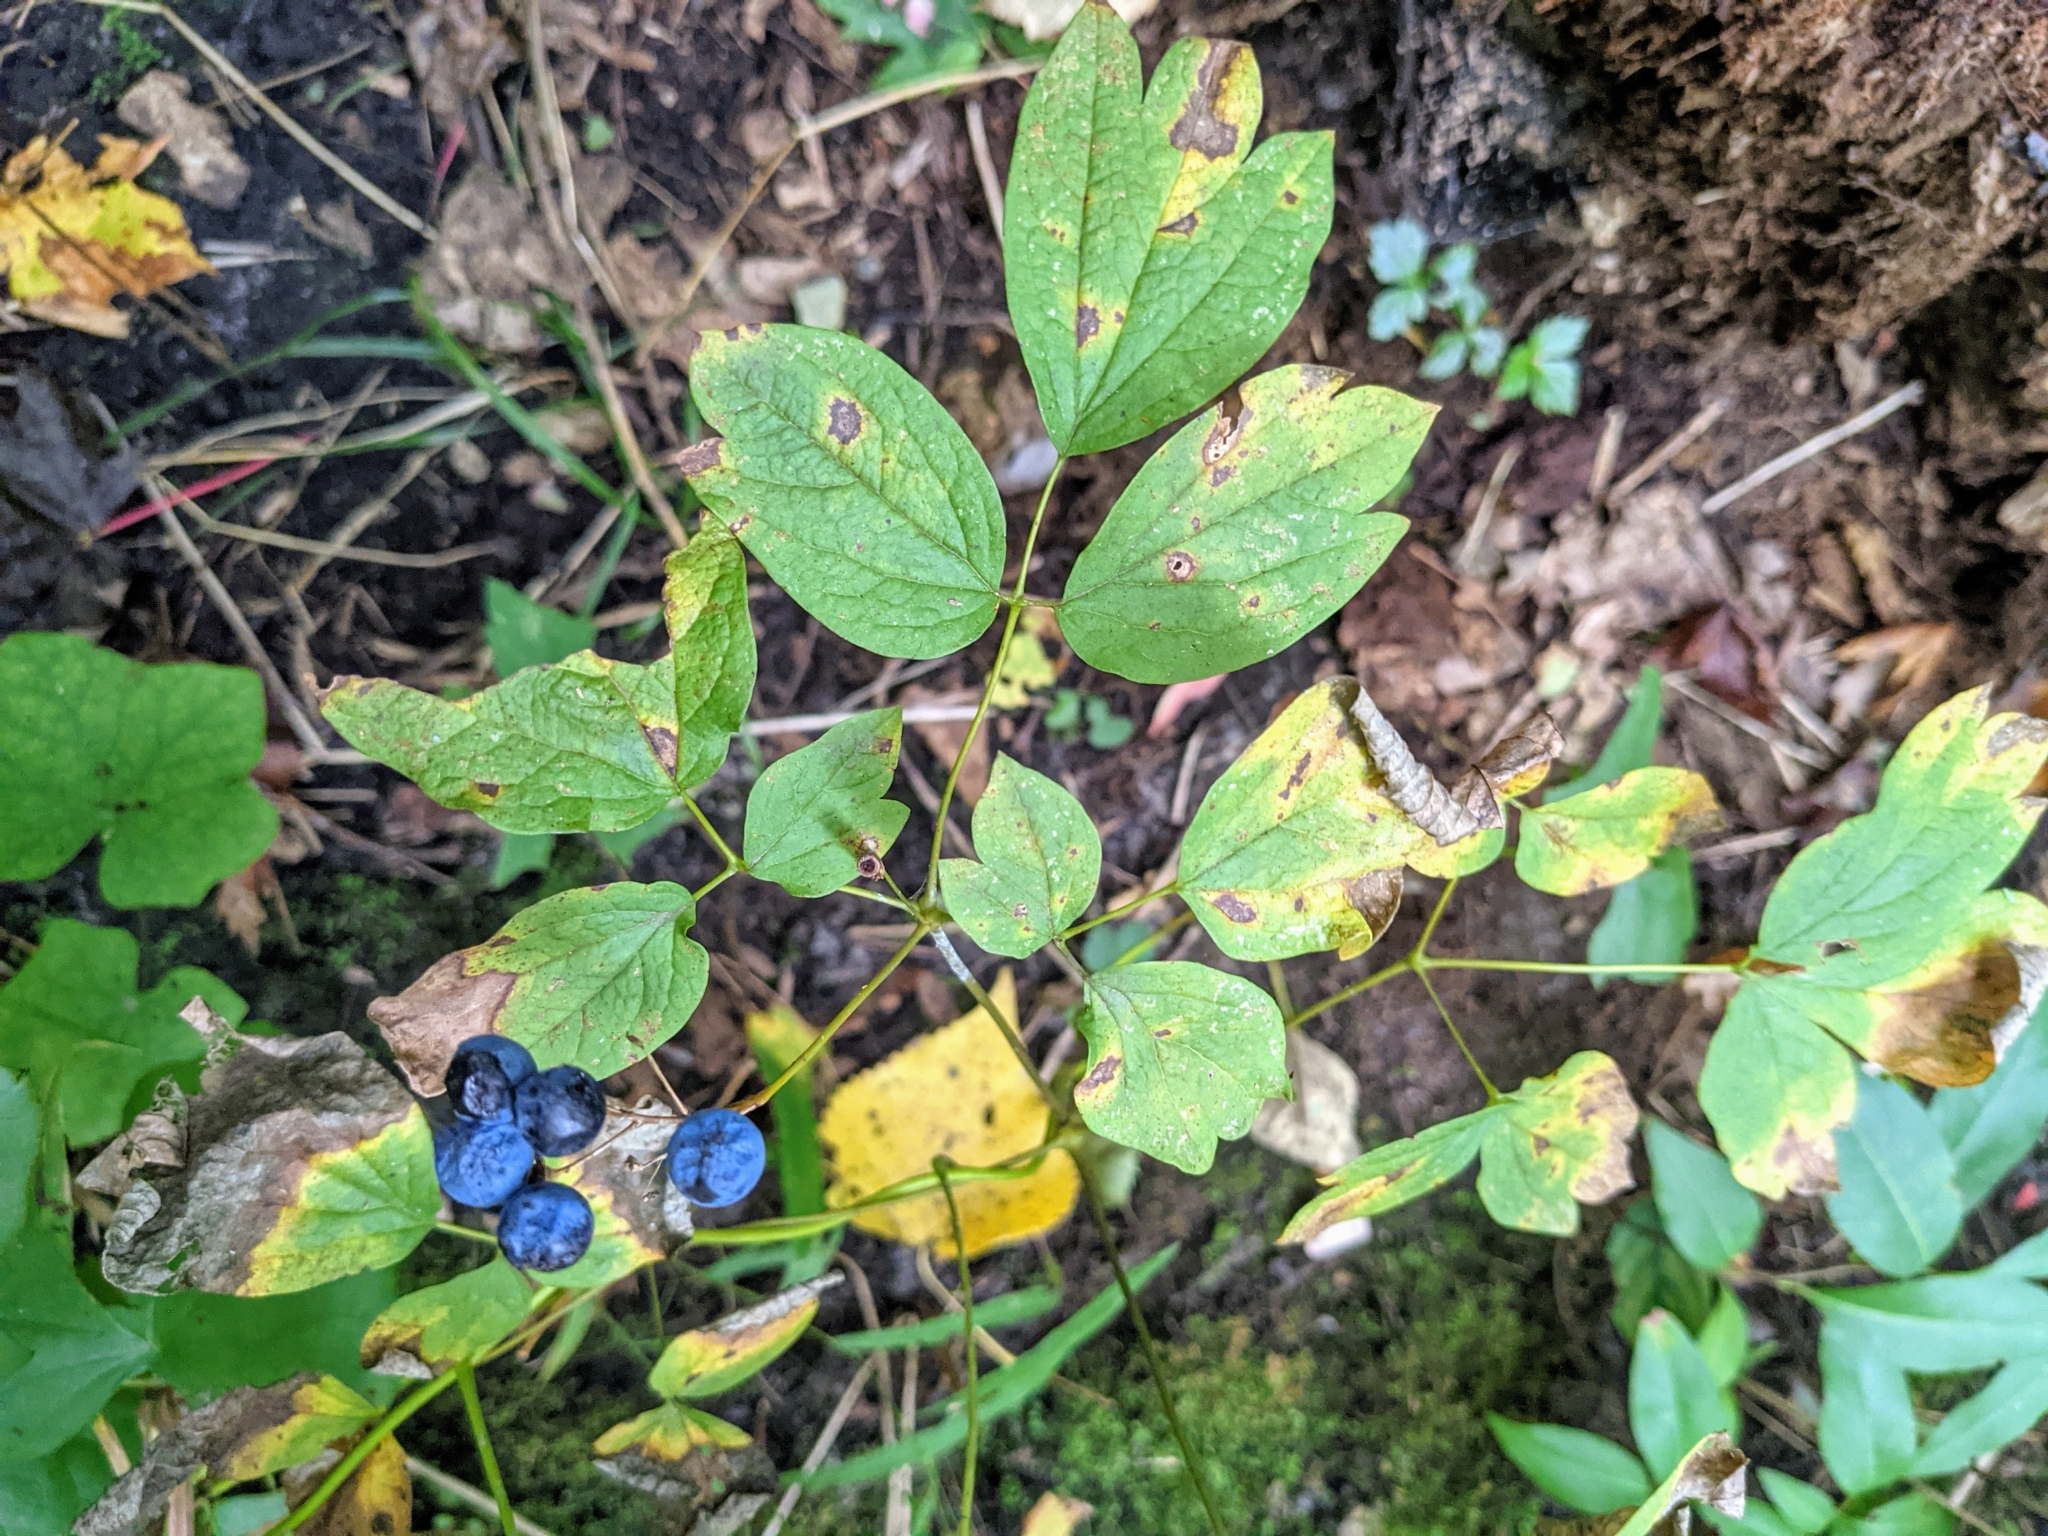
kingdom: Plantae
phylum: Tracheophyta
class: Magnoliopsida
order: Ranunculales
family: Berberidaceae
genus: Caulophyllum
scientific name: Caulophyllum thalictroides
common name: Blue cohosh
